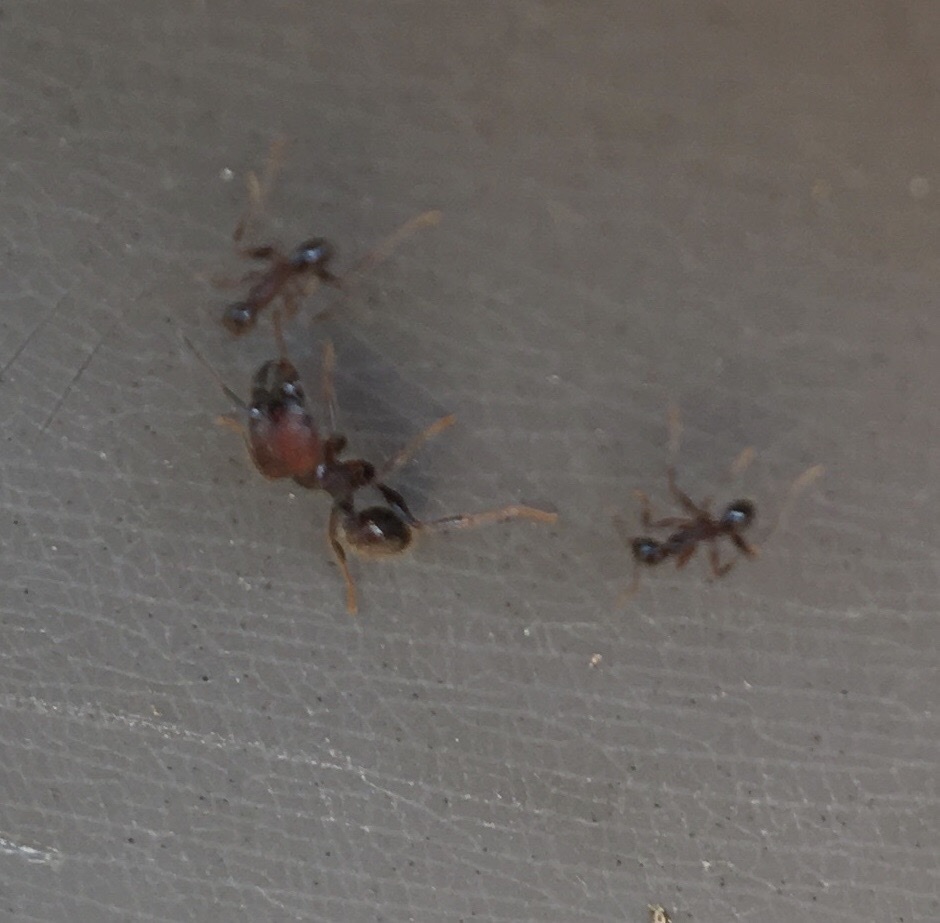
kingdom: Animalia
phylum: Arthropoda
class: Insecta
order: Hymenoptera
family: Formicidae
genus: Pheidole
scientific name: Pheidole obscurithorax
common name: Obscure big-headed ant
